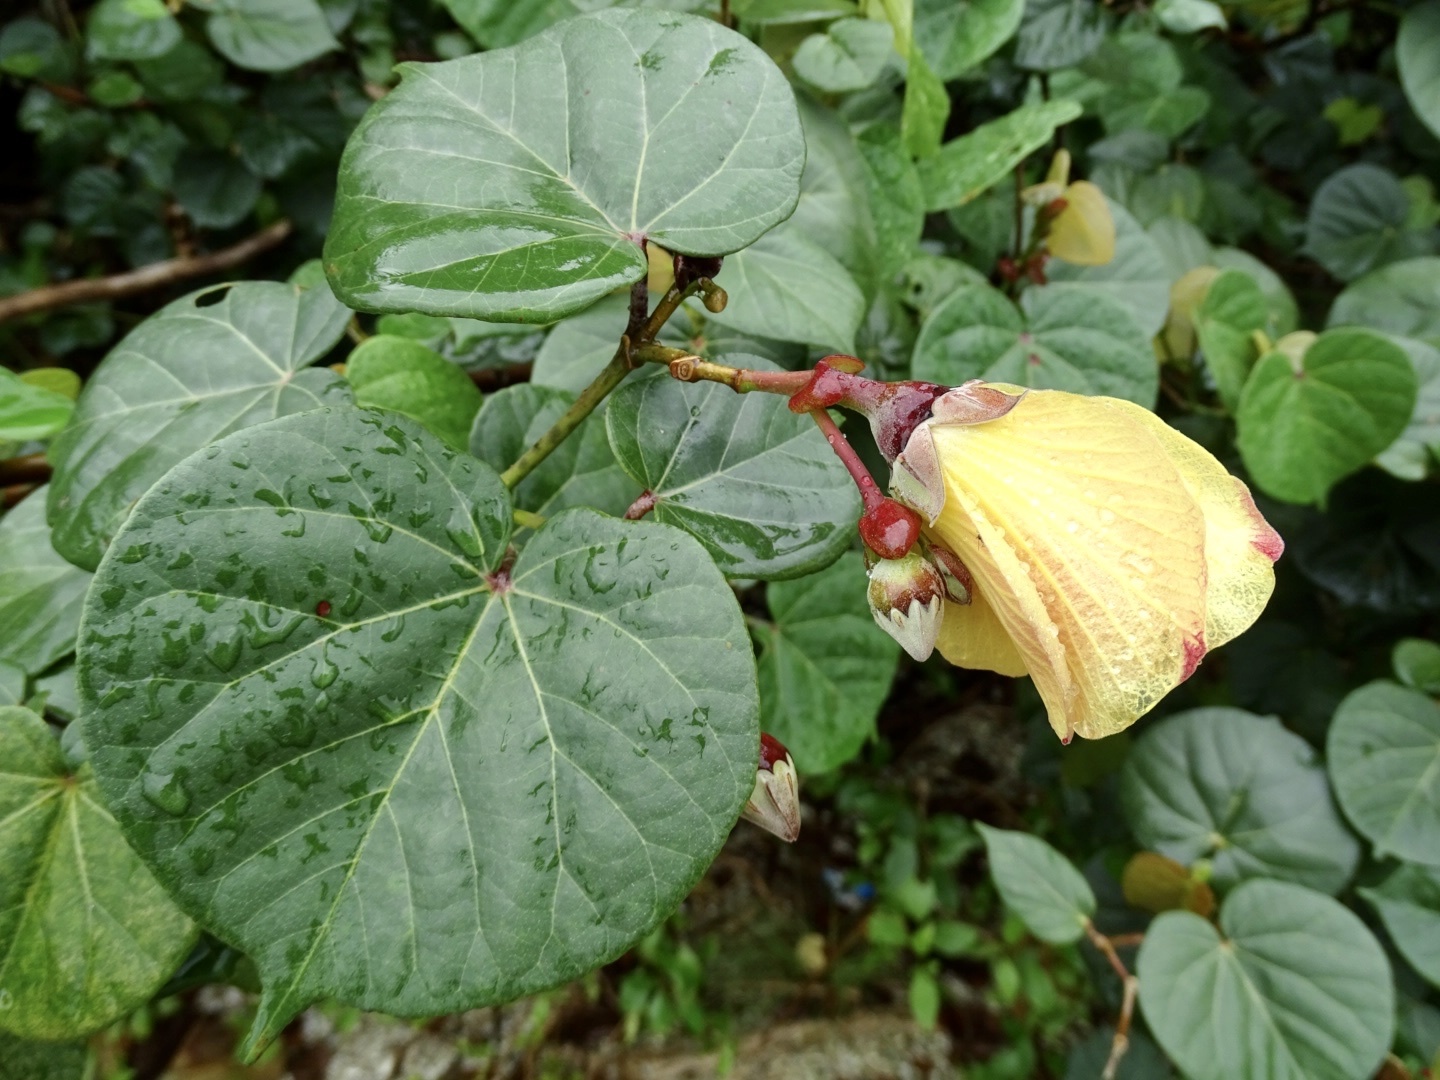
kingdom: Plantae
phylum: Tracheophyta
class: Magnoliopsida
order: Malvales
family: Malvaceae
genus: Talipariti
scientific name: Talipariti tiliaceum
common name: Sea hibiscus
